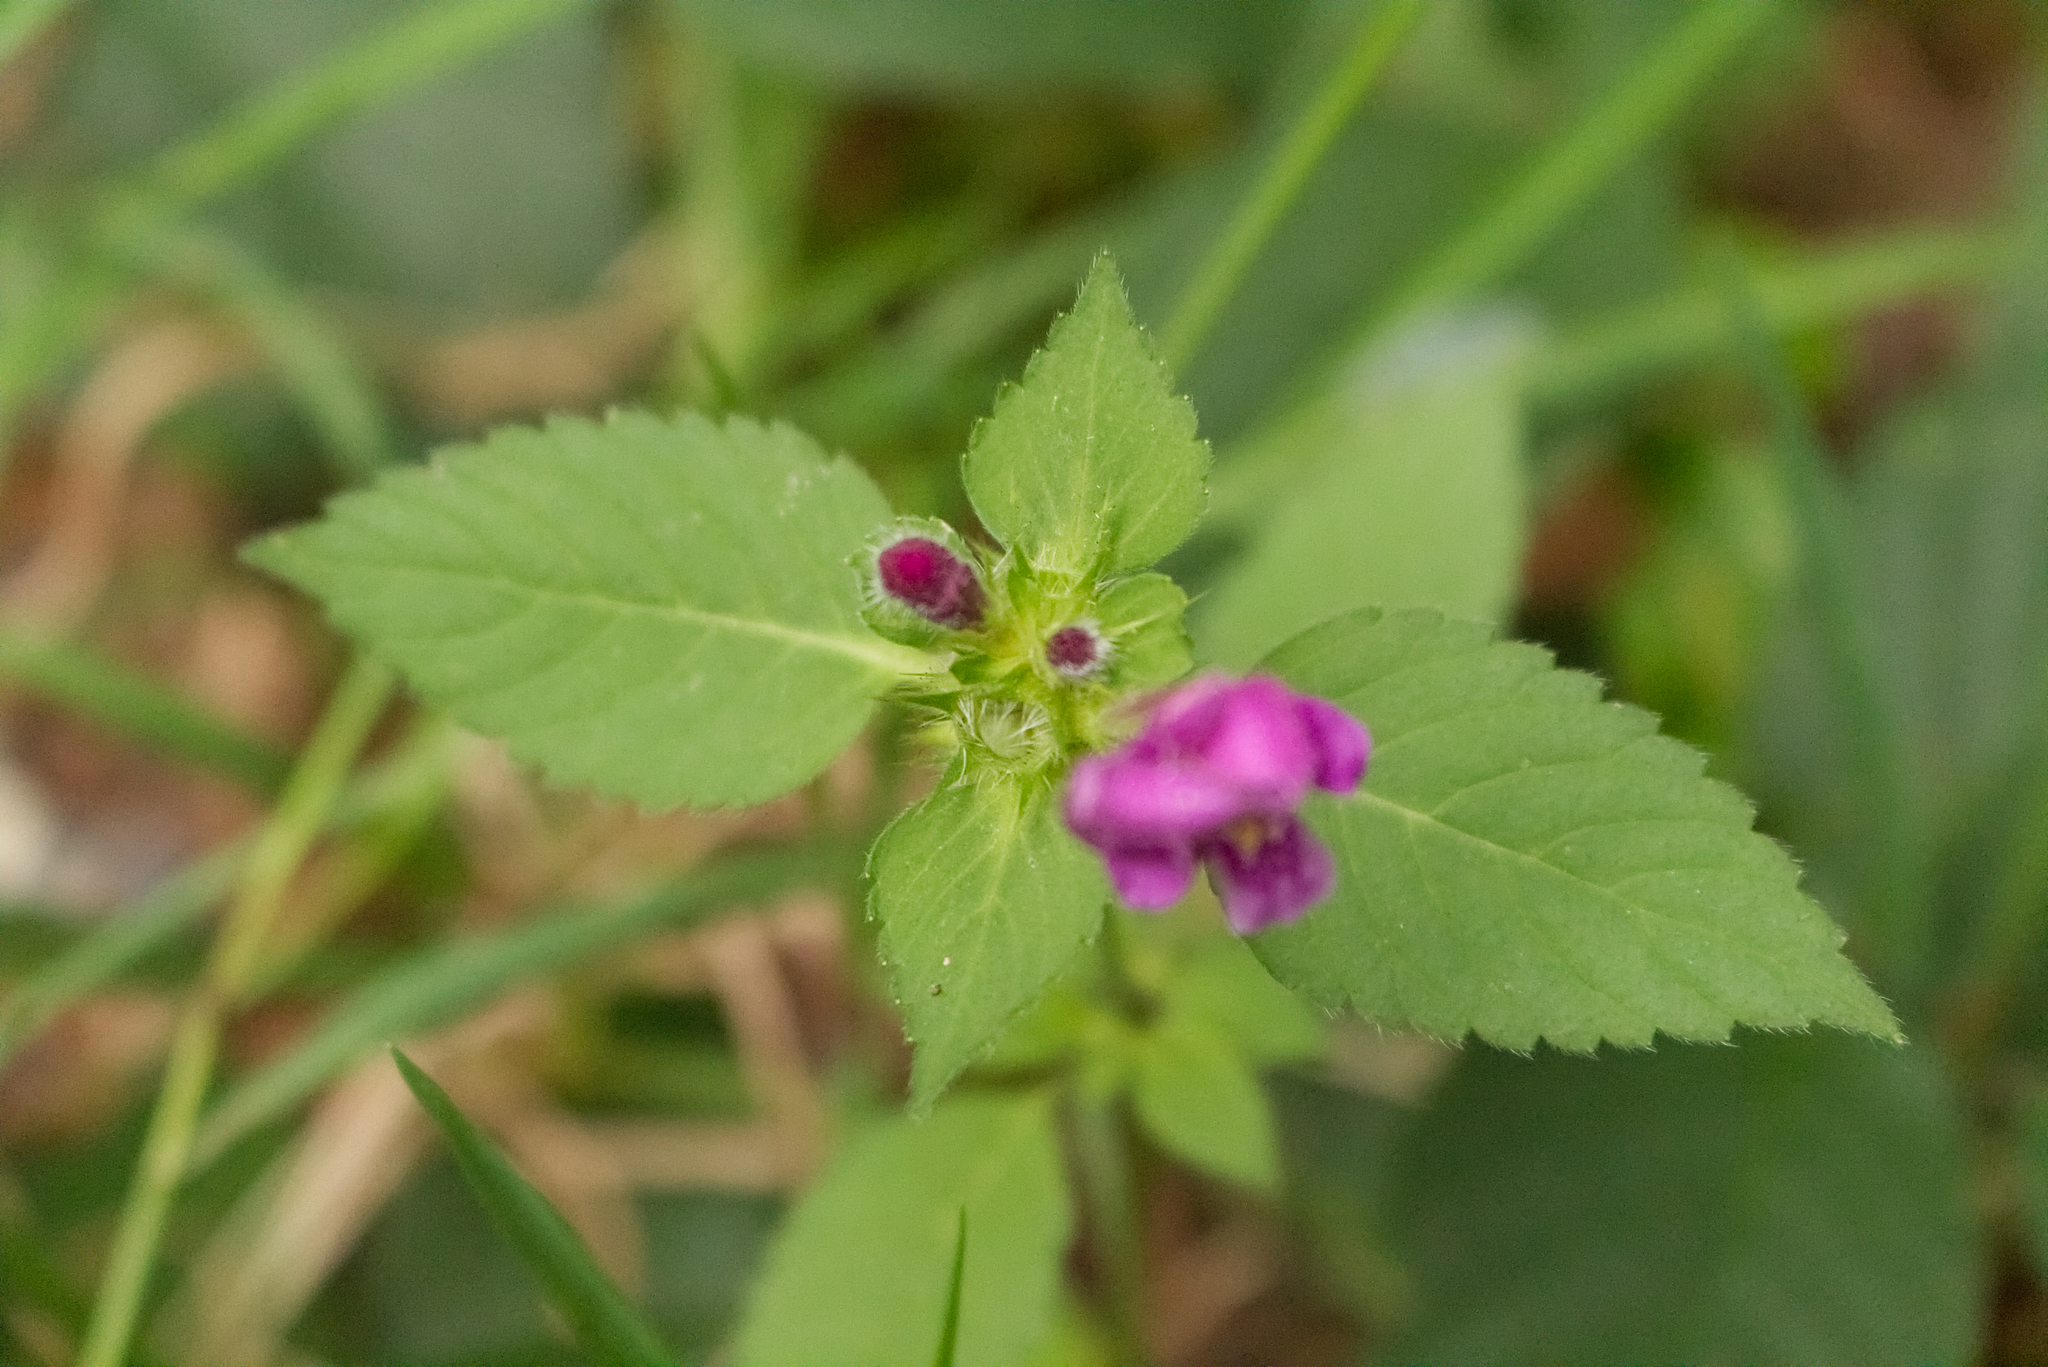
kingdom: Plantae
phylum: Tracheophyta
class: Magnoliopsida
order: Lamiales
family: Lamiaceae
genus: Galeopsis
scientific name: Galeopsis tetrahit
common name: Common hemp-nettle
